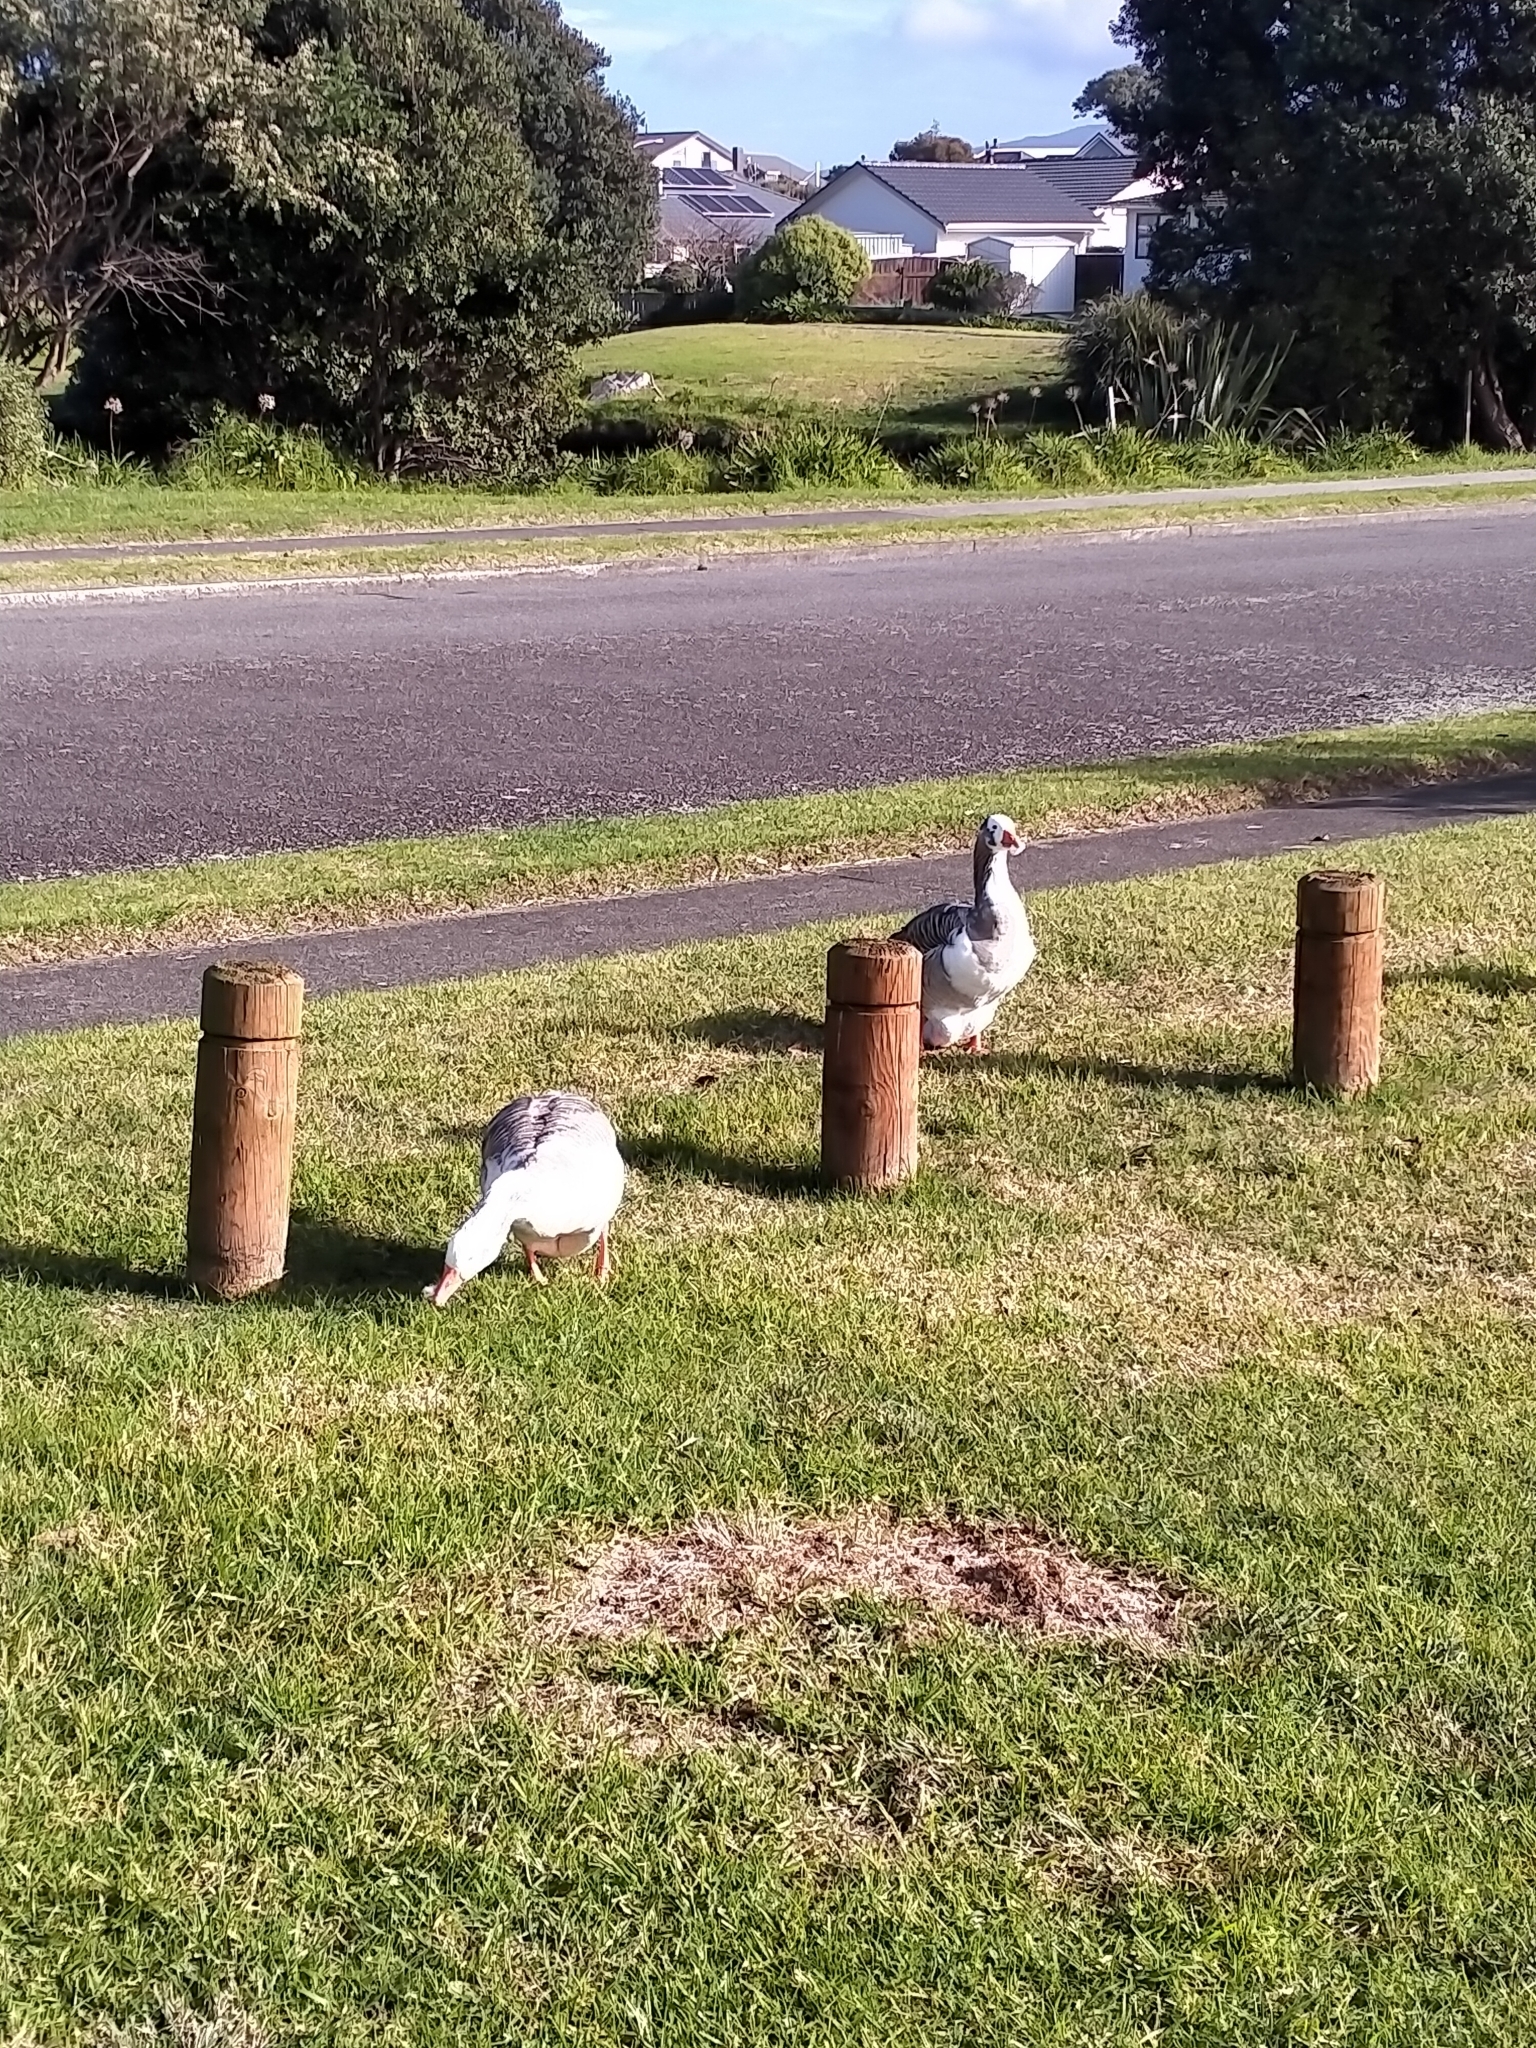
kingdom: Animalia
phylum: Chordata
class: Aves
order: Anseriformes
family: Anatidae
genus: Anser
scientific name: Anser anser
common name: Greylag goose
